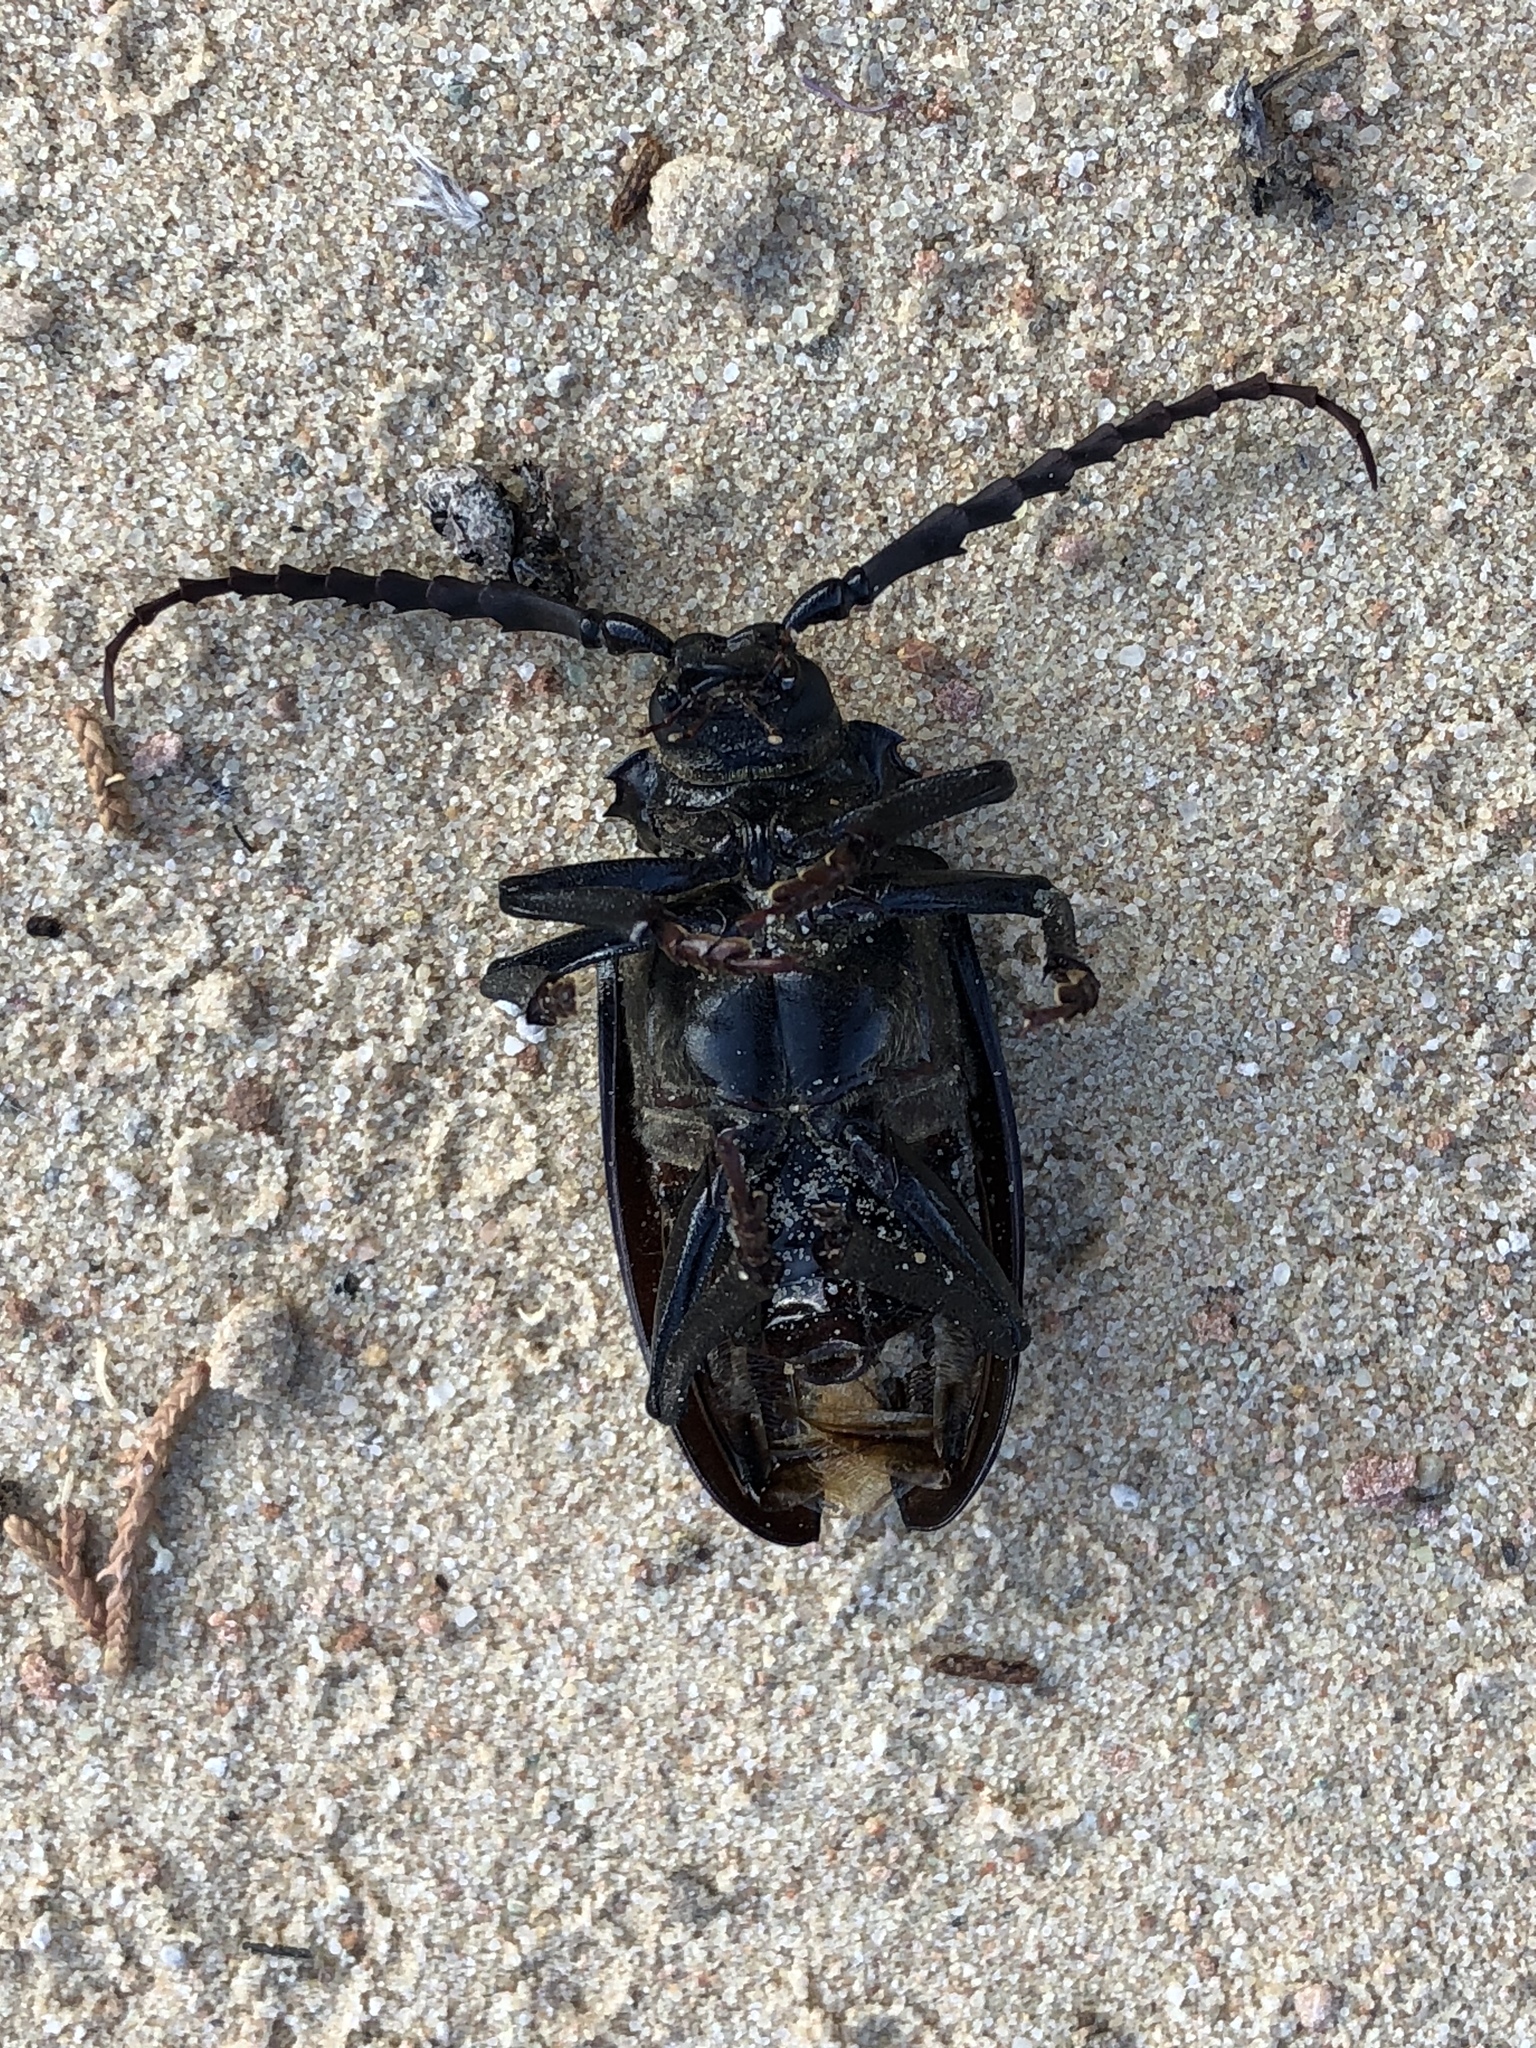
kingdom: Animalia
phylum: Arthropoda
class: Insecta
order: Coleoptera
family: Cerambycidae
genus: Prionus
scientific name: Prionus heroicus
